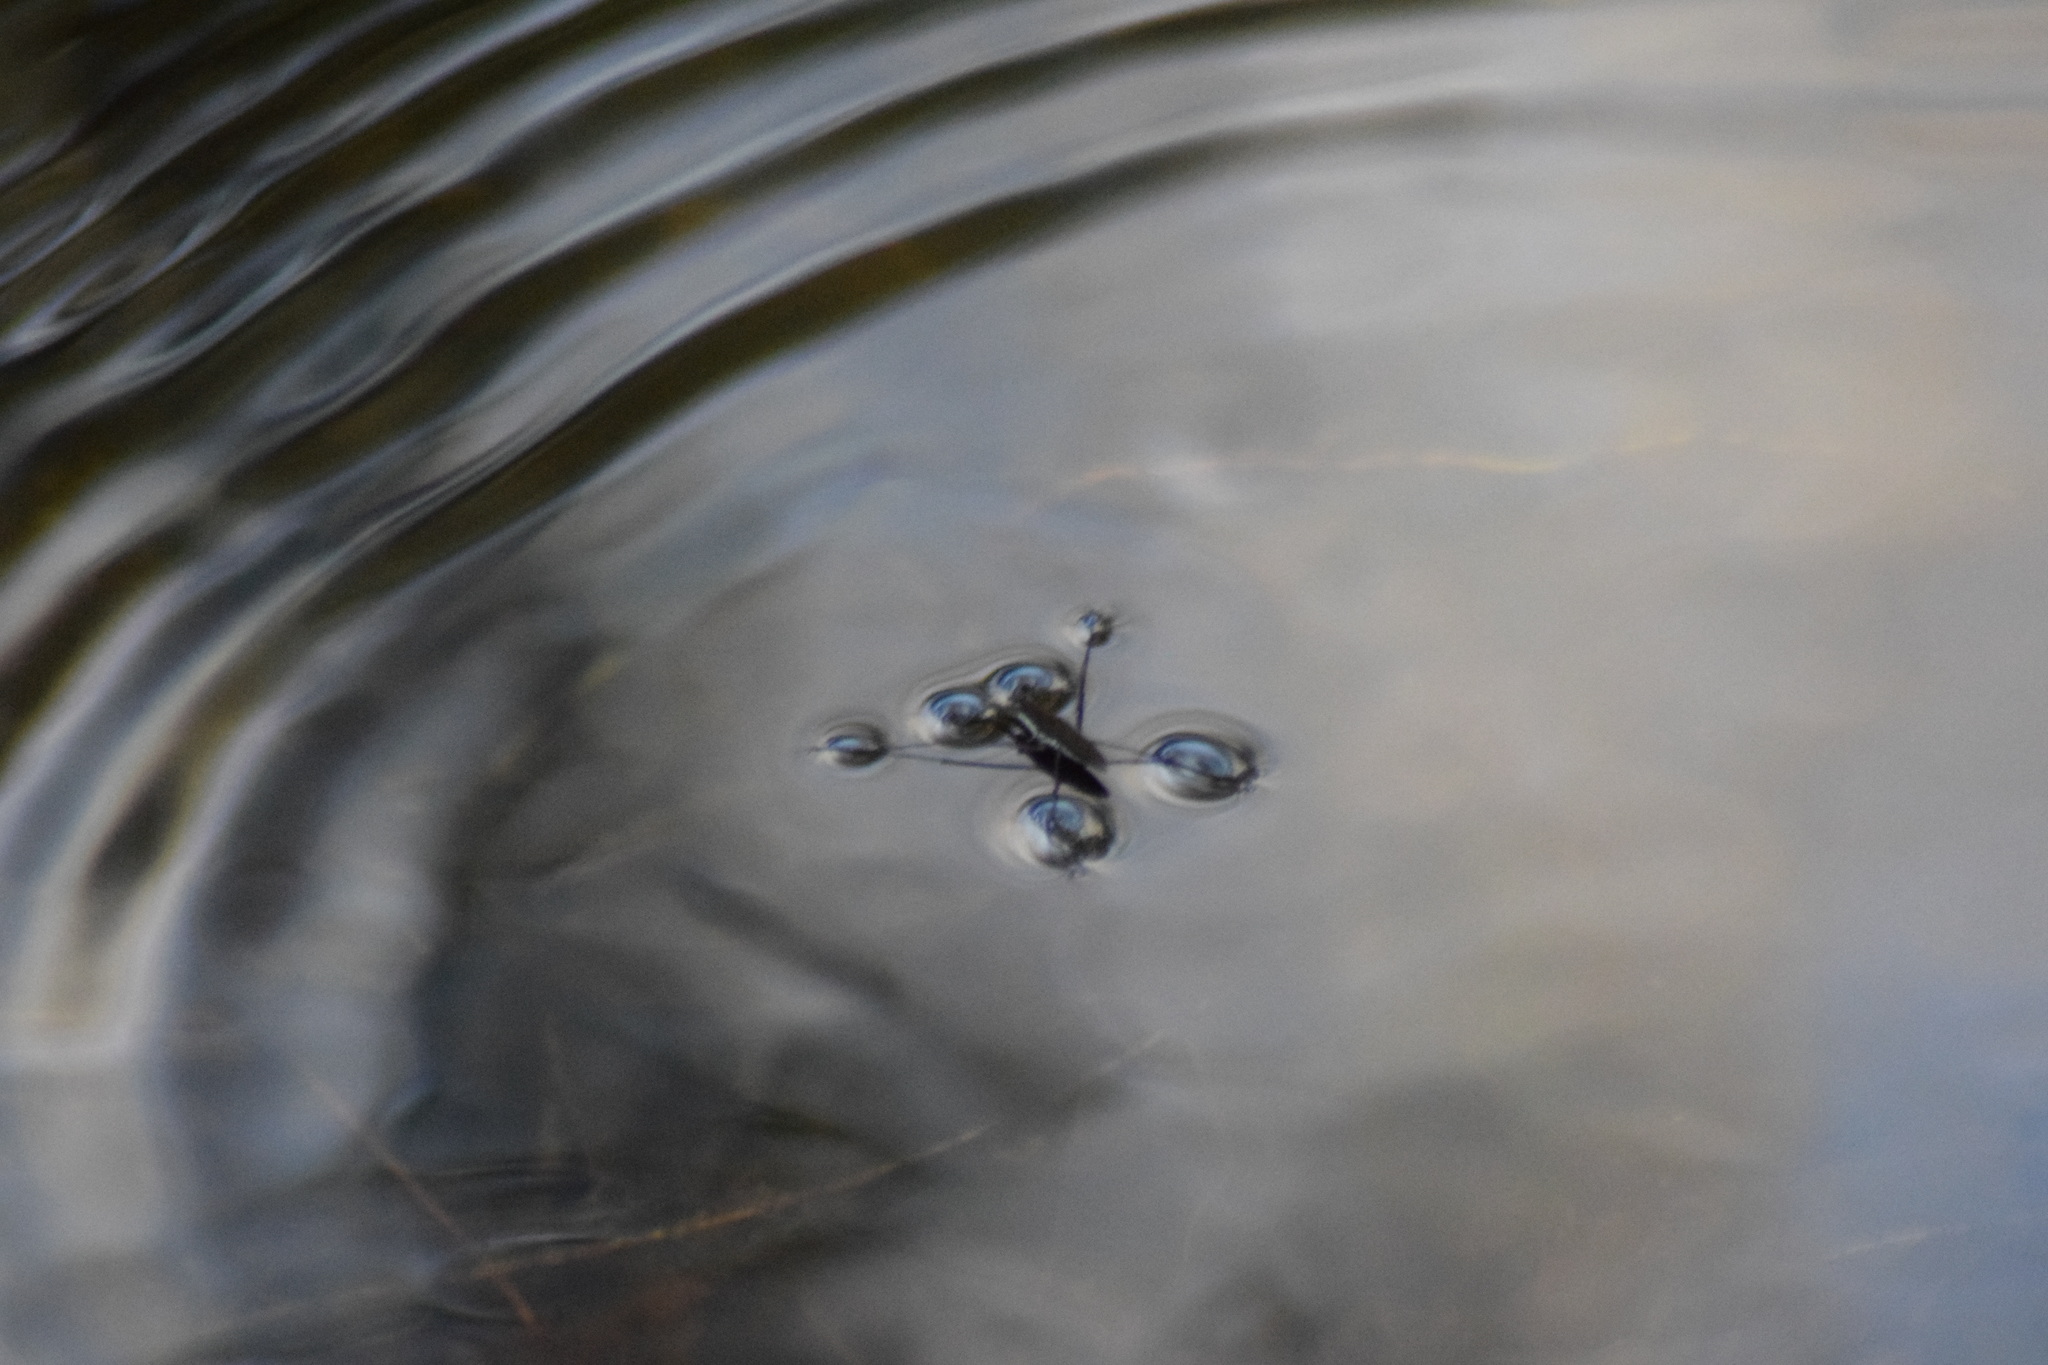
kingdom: Animalia
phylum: Arthropoda
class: Insecta
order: Hemiptera
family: Gerridae
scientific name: Gerridae
